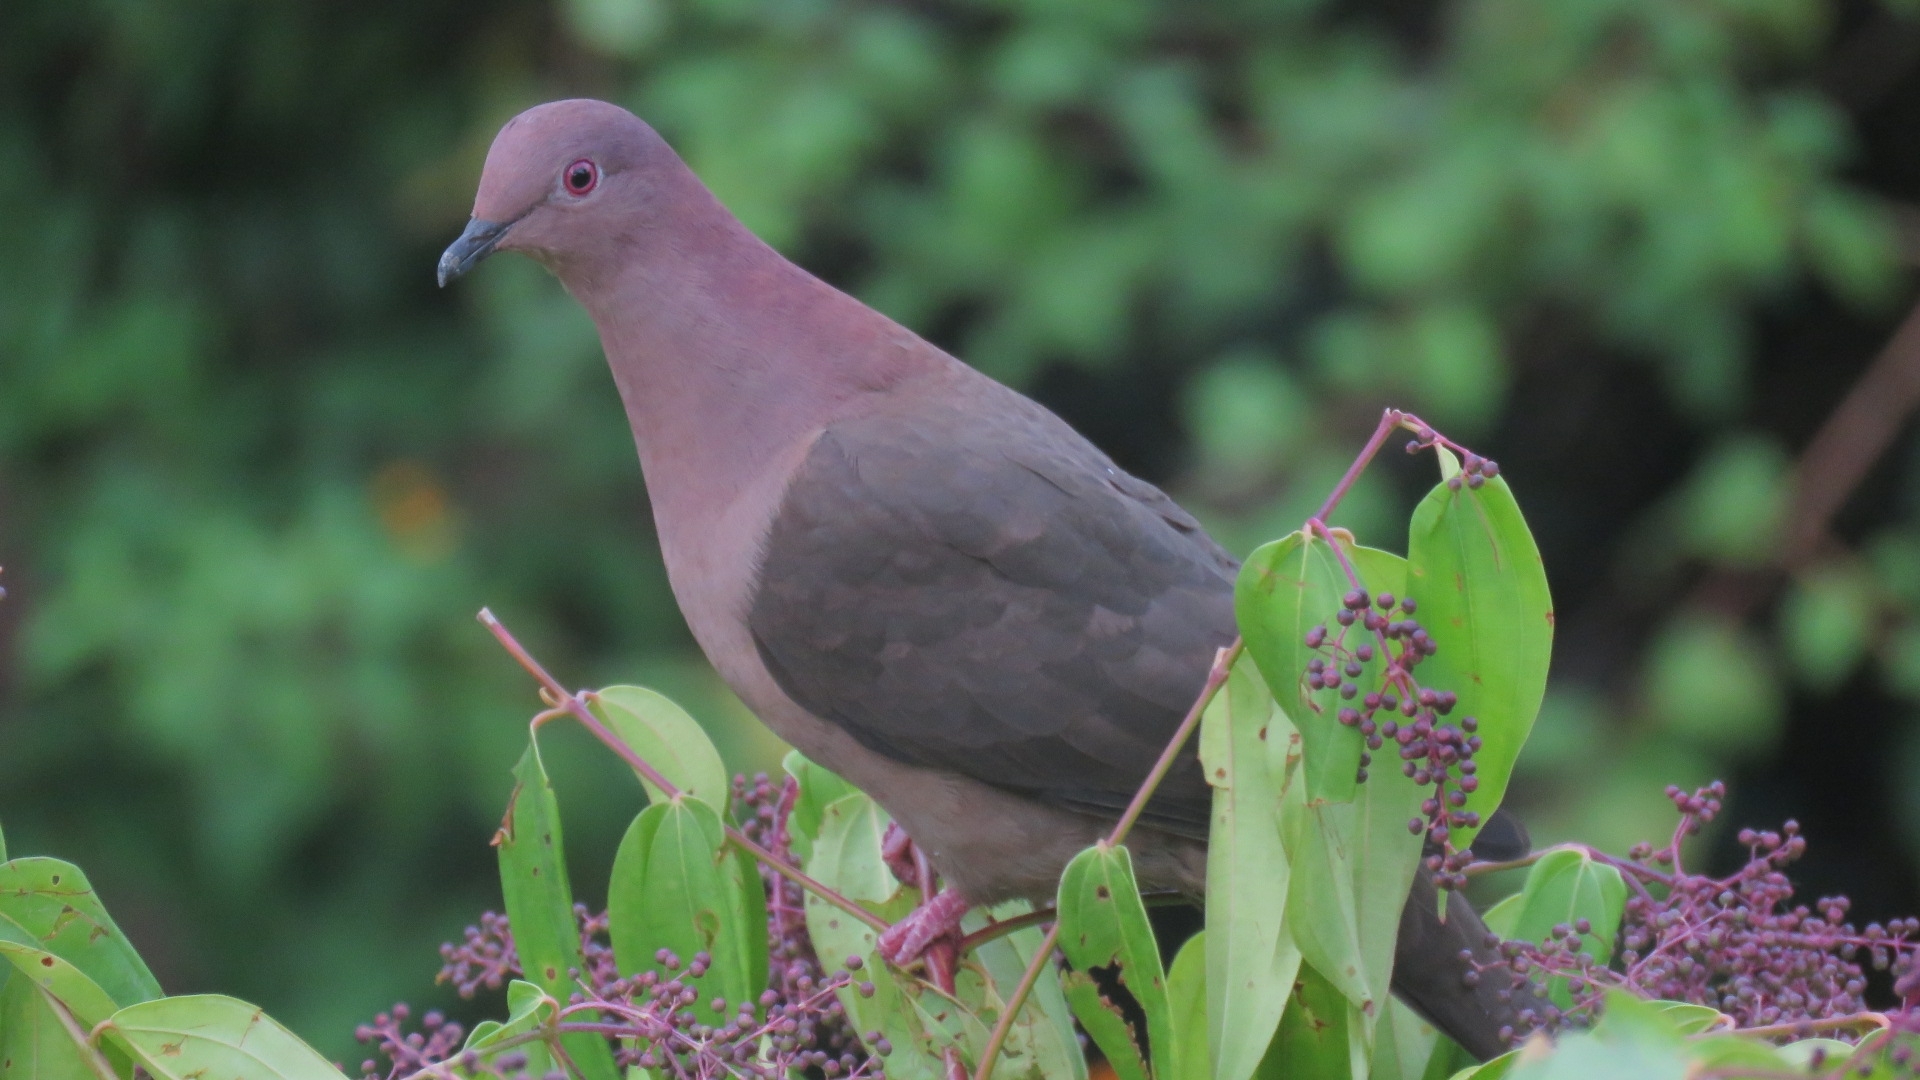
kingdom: Animalia
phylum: Chordata
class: Aves
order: Columbiformes
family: Columbidae
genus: Patagioenas
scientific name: Patagioenas nigrirostris
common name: Short-billed pigeon
